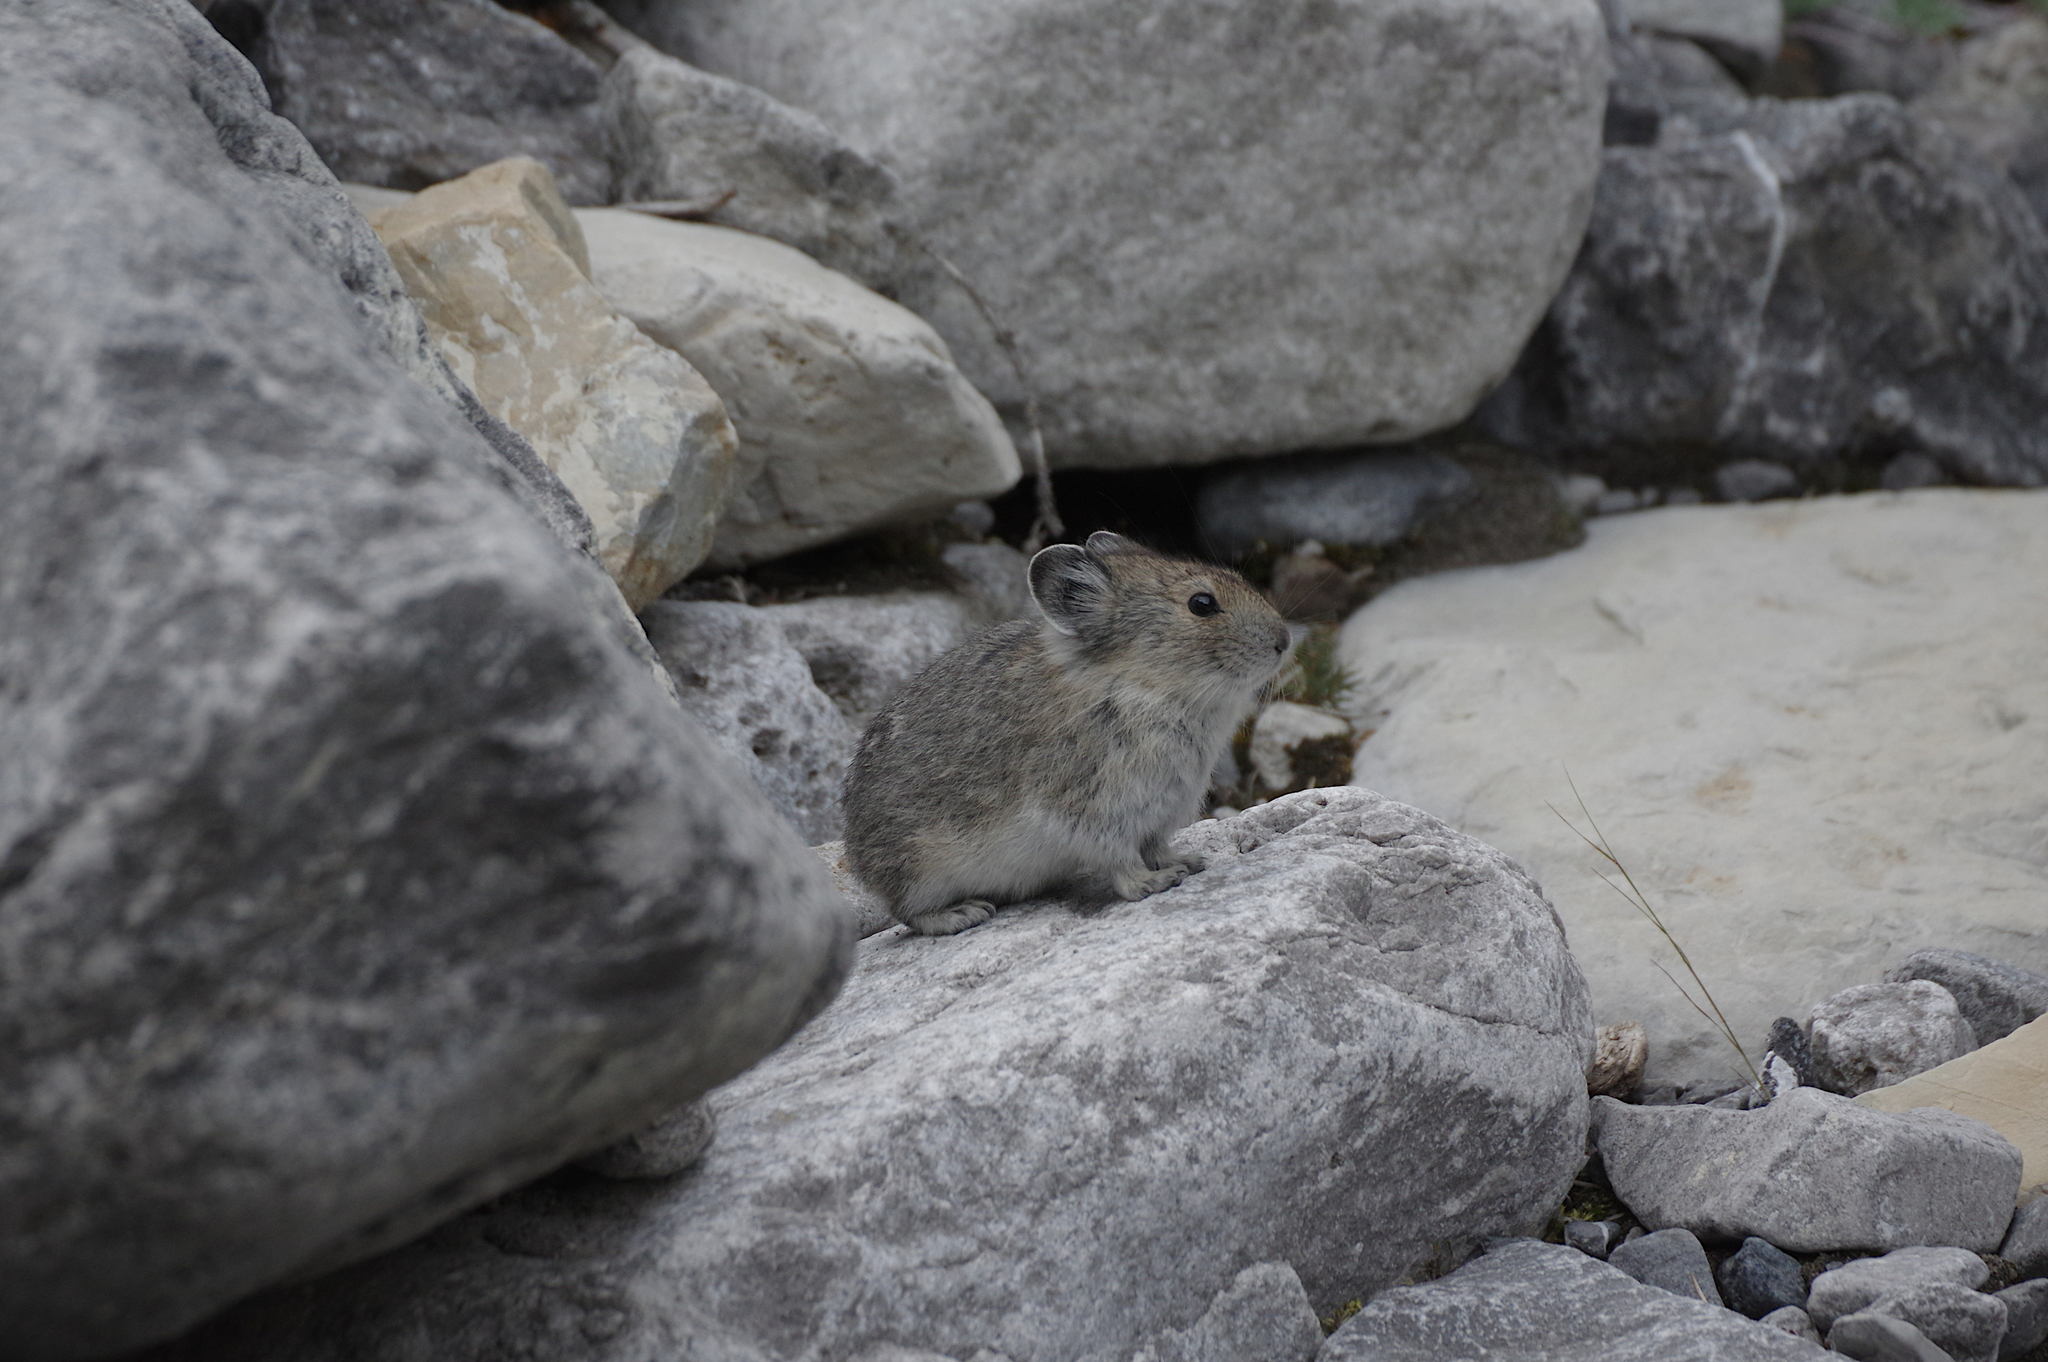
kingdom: Animalia
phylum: Chordata
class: Mammalia
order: Lagomorpha
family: Ochotonidae
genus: Ochotona
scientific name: Ochotona princeps
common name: American pika
